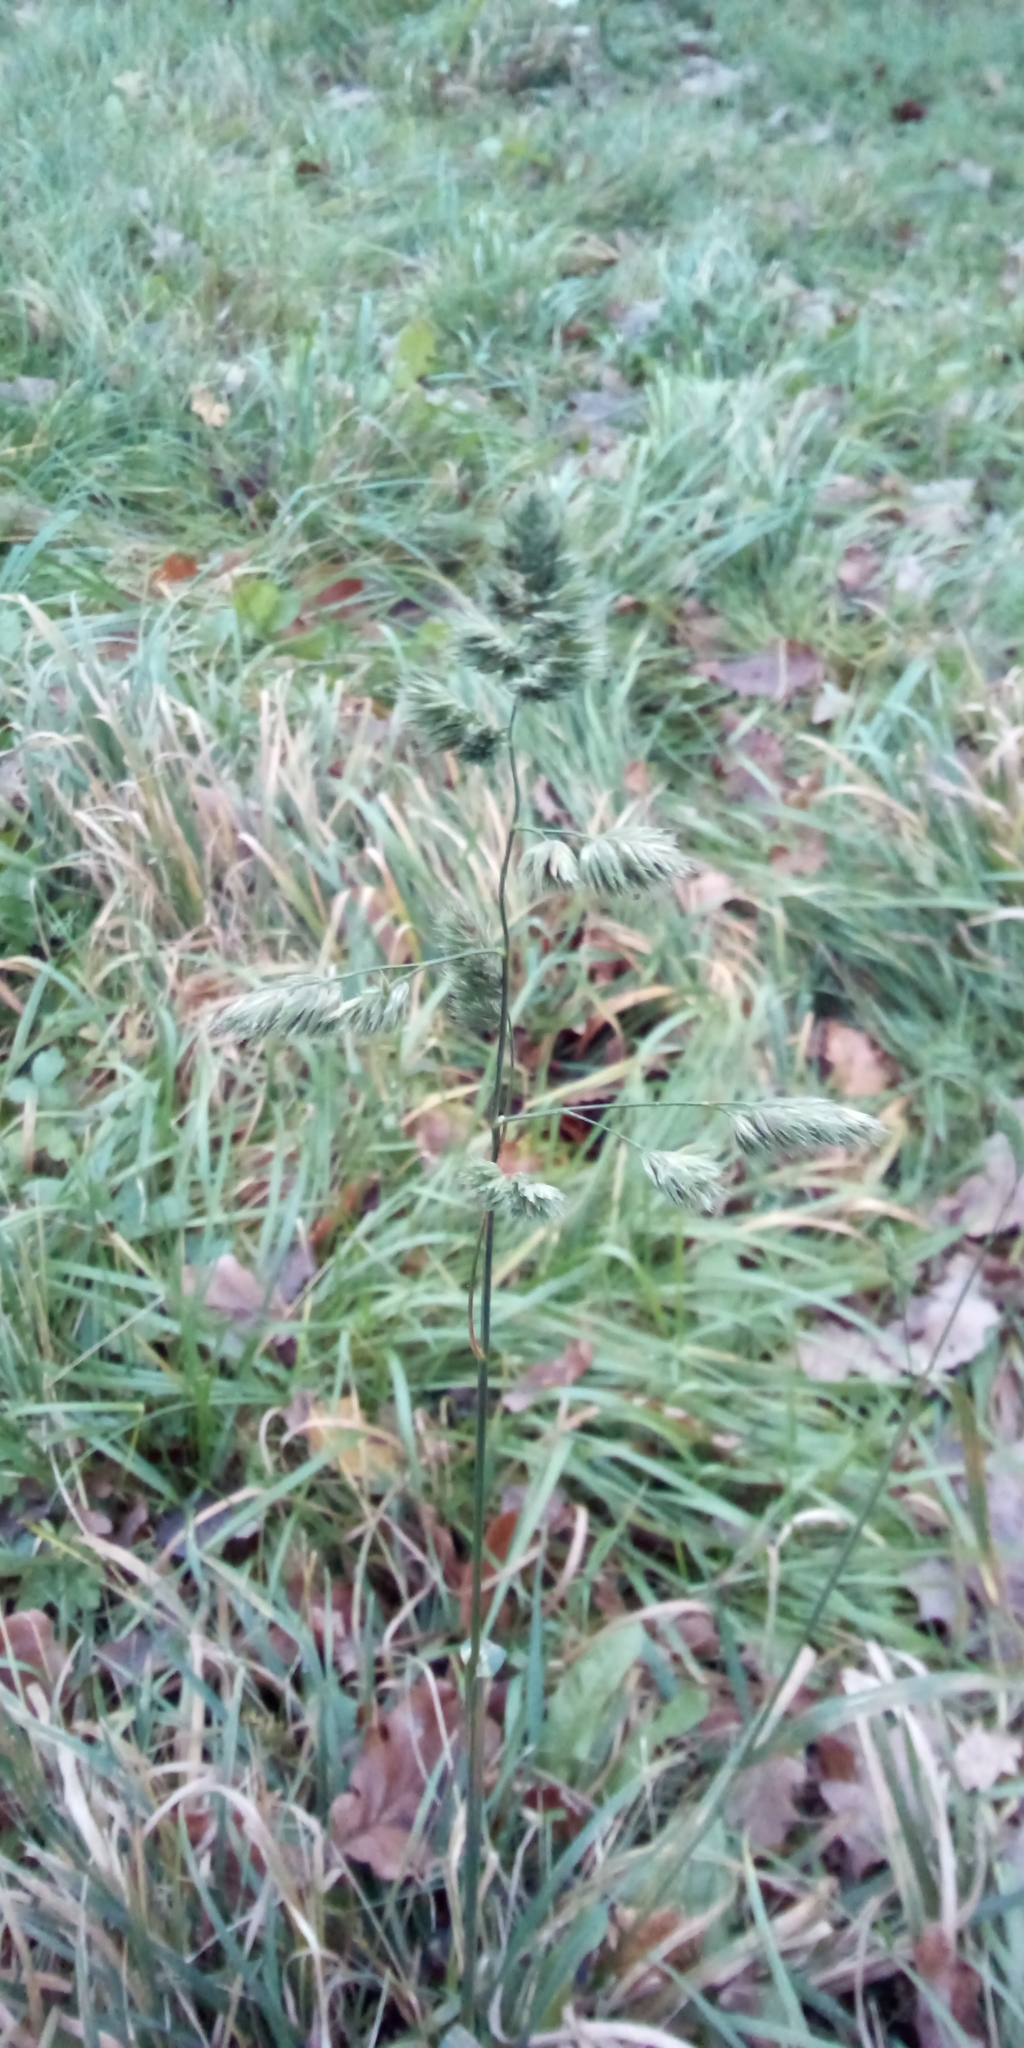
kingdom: Plantae
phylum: Tracheophyta
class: Liliopsida
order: Poales
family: Poaceae
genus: Dactylis
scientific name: Dactylis glomerata
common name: Orchardgrass
